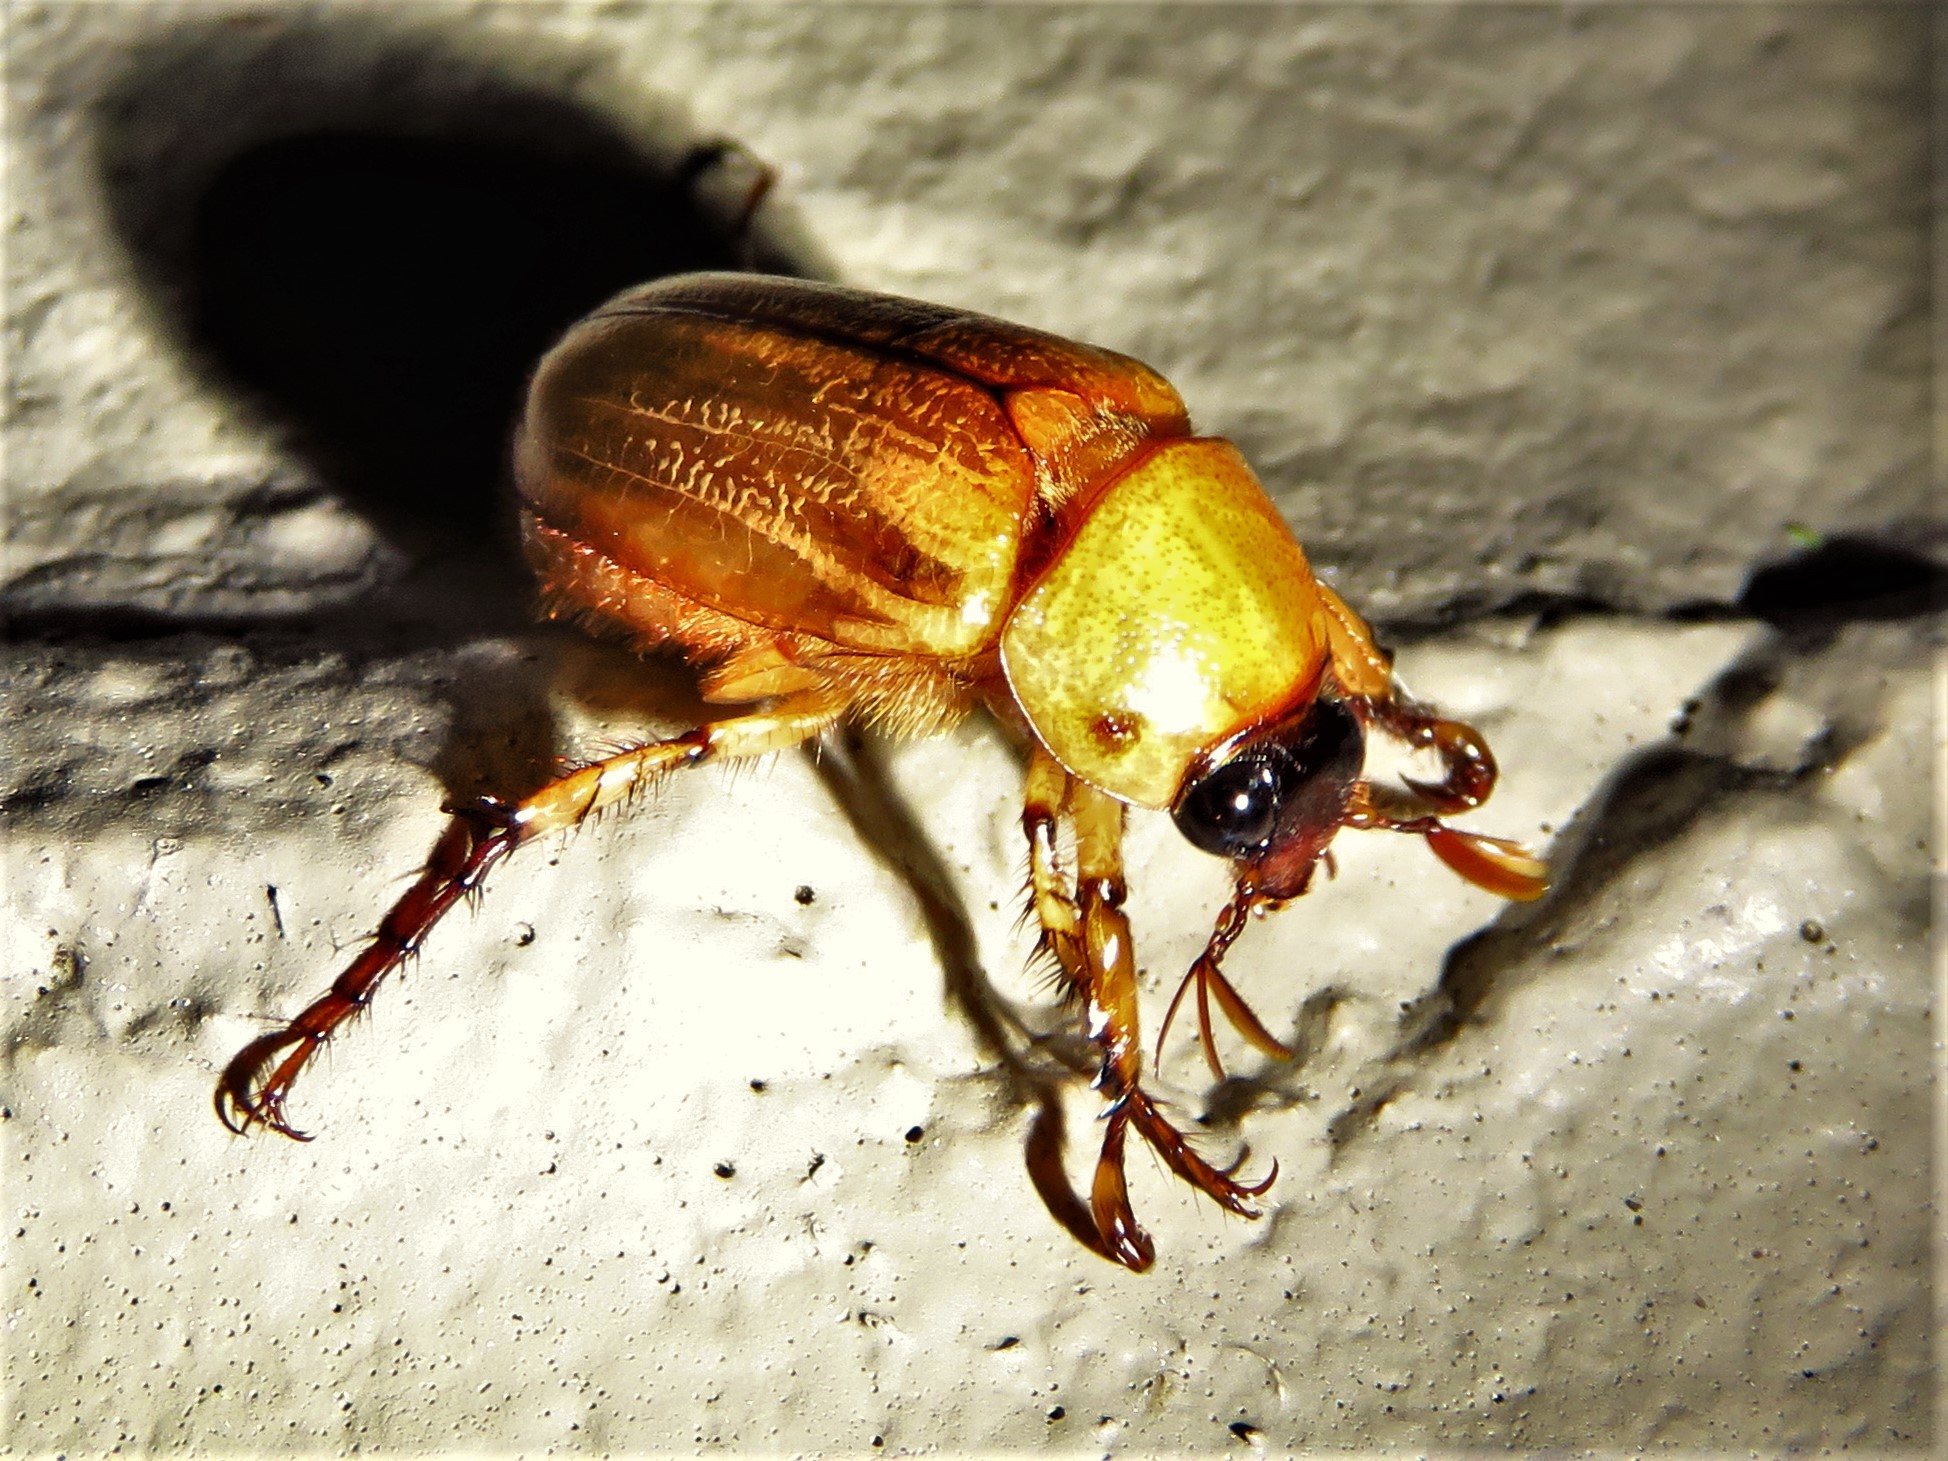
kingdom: Animalia
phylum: Arthropoda
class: Insecta
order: Coleoptera
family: Scarabaeidae
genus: Cyclocephala
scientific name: Cyclocephala lurida
